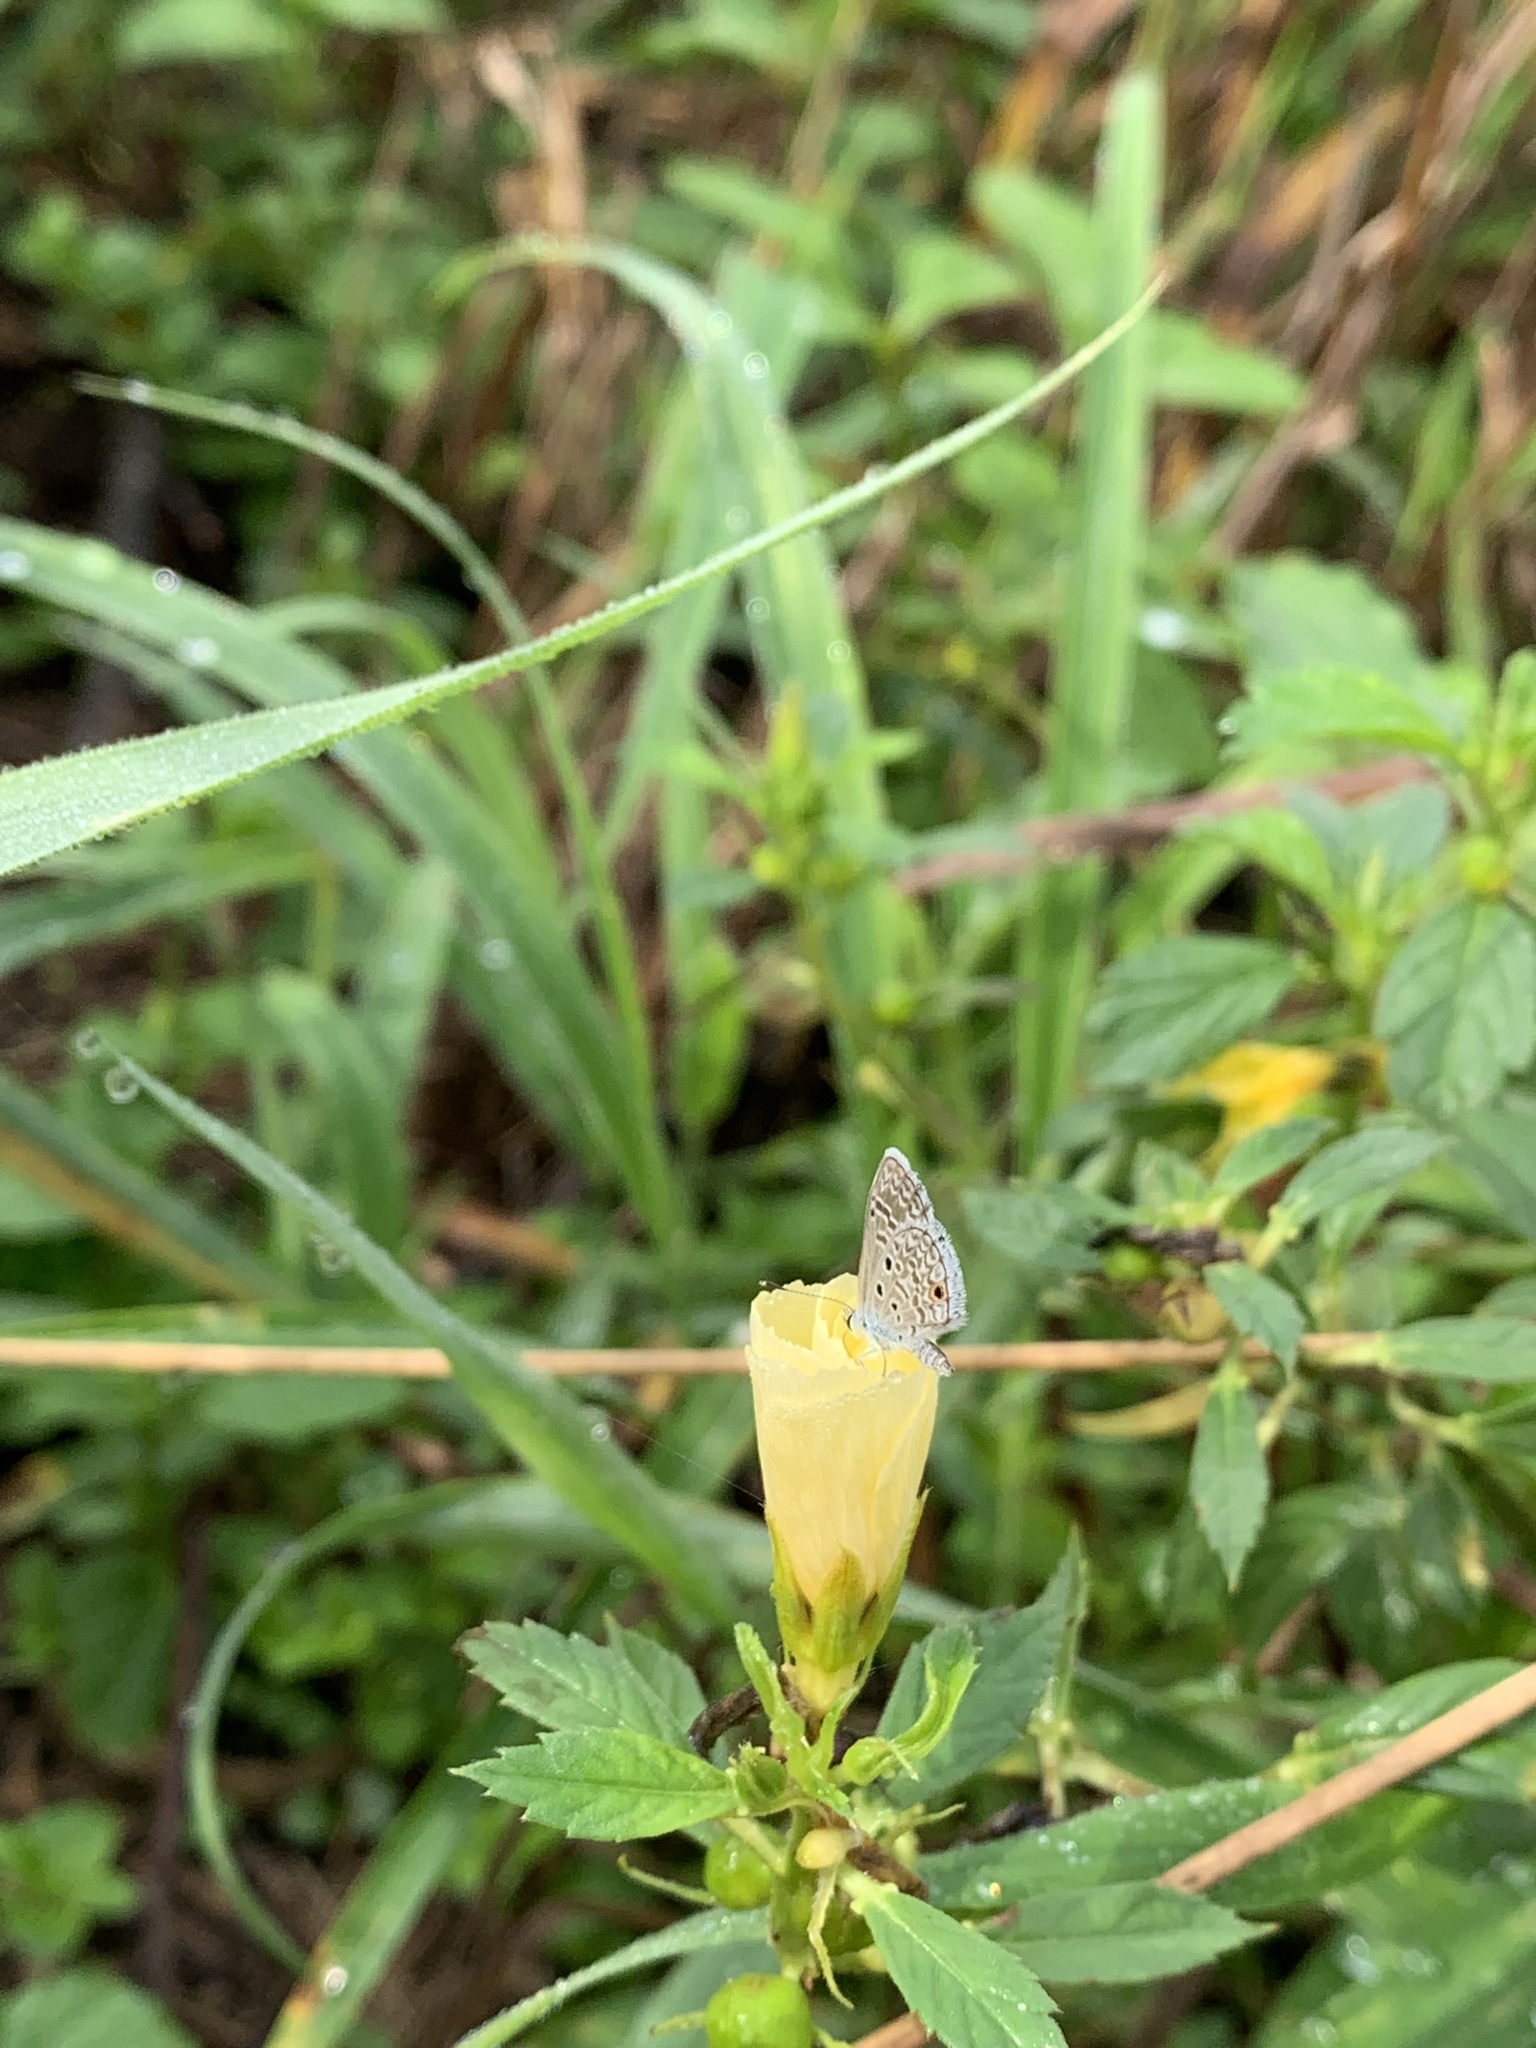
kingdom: Animalia
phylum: Arthropoda
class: Insecta
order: Lepidoptera
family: Lycaenidae
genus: Hemiargus
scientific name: Hemiargus hanno
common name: Common blue
